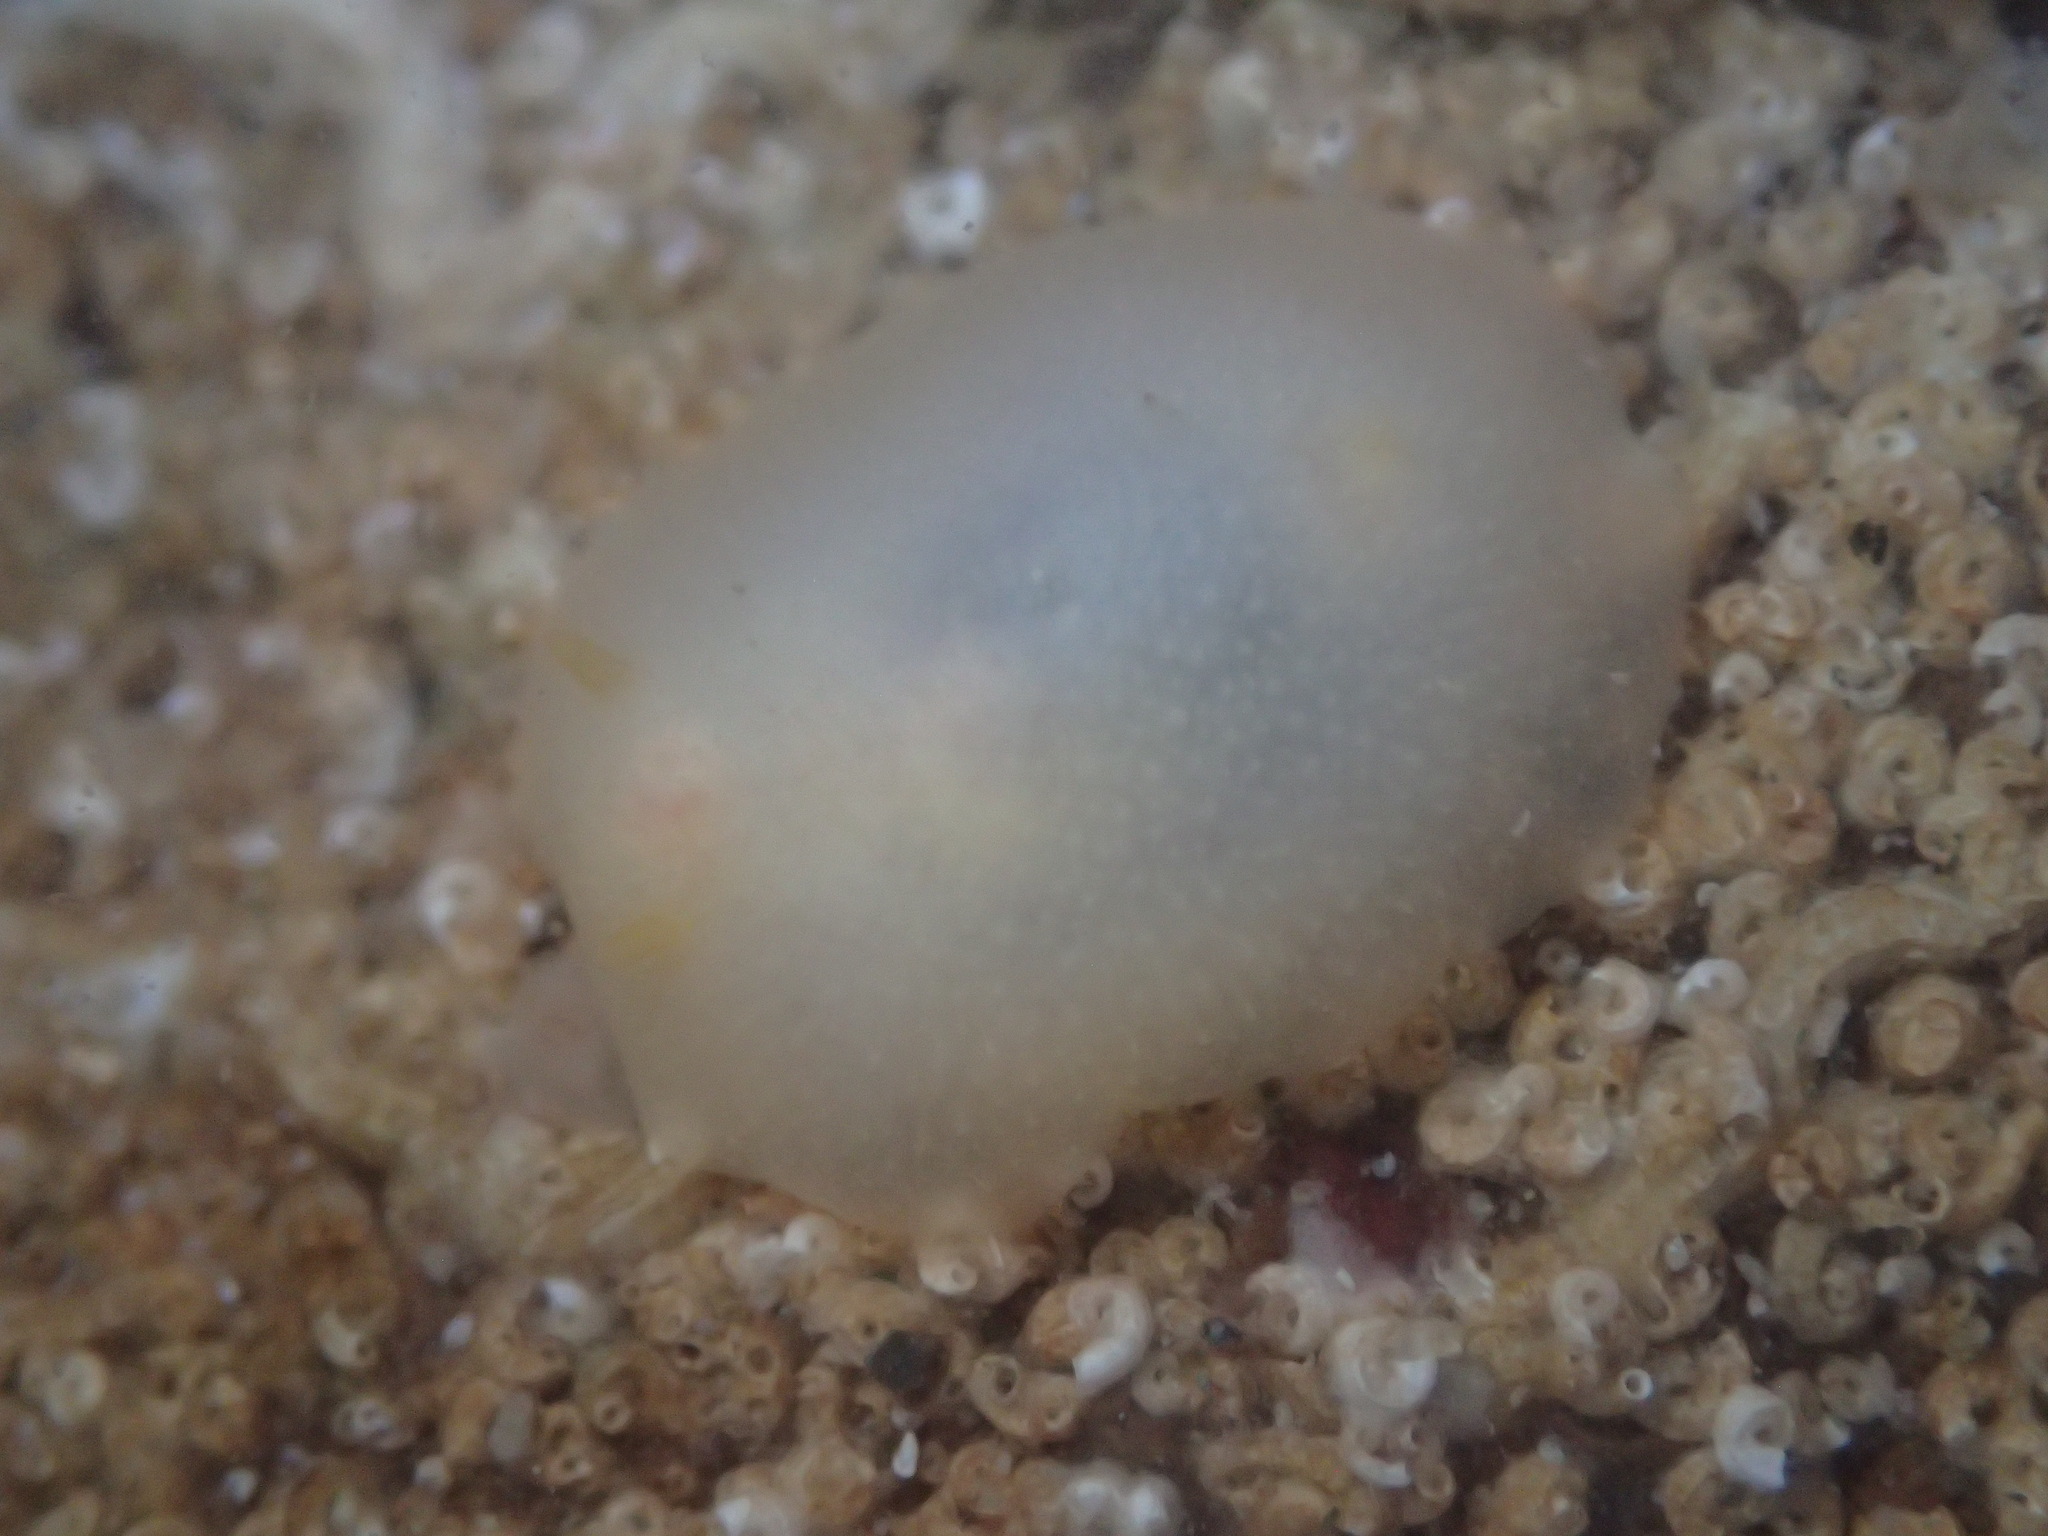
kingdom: Animalia
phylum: Mollusca
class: Gastropoda
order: Nudibranchia
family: Dorididae
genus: Conualevia
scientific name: Conualevia marcusi
